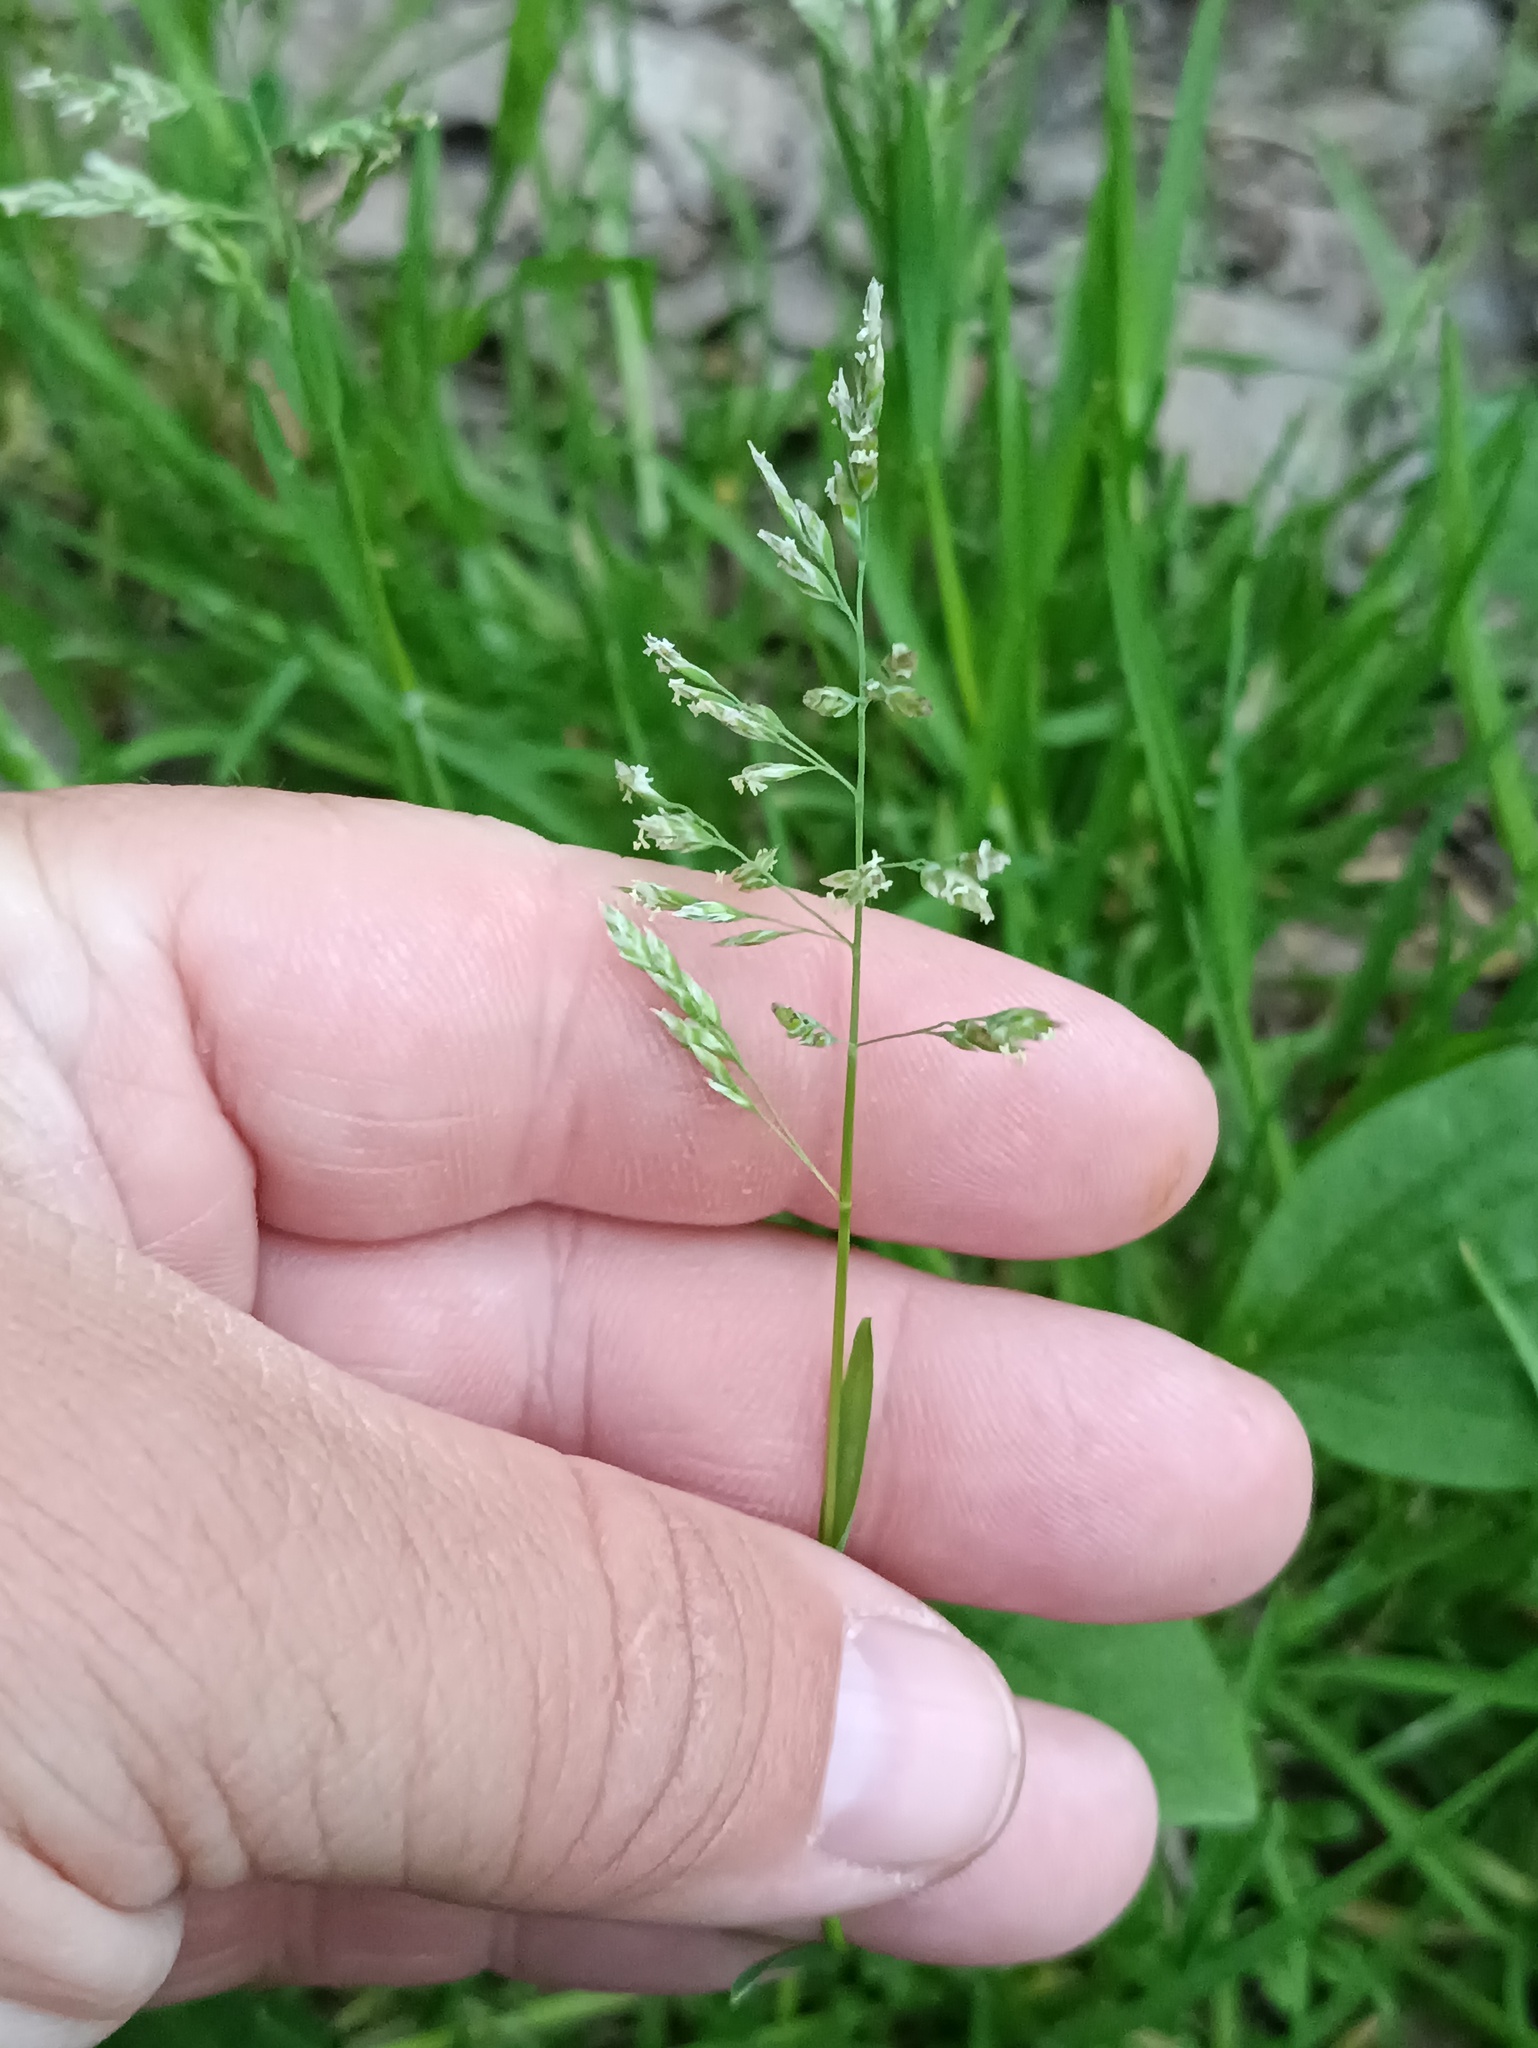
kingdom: Plantae
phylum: Tracheophyta
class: Liliopsida
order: Poales
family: Poaceae
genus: Poa
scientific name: Poa annua
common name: Annual bluegrass
